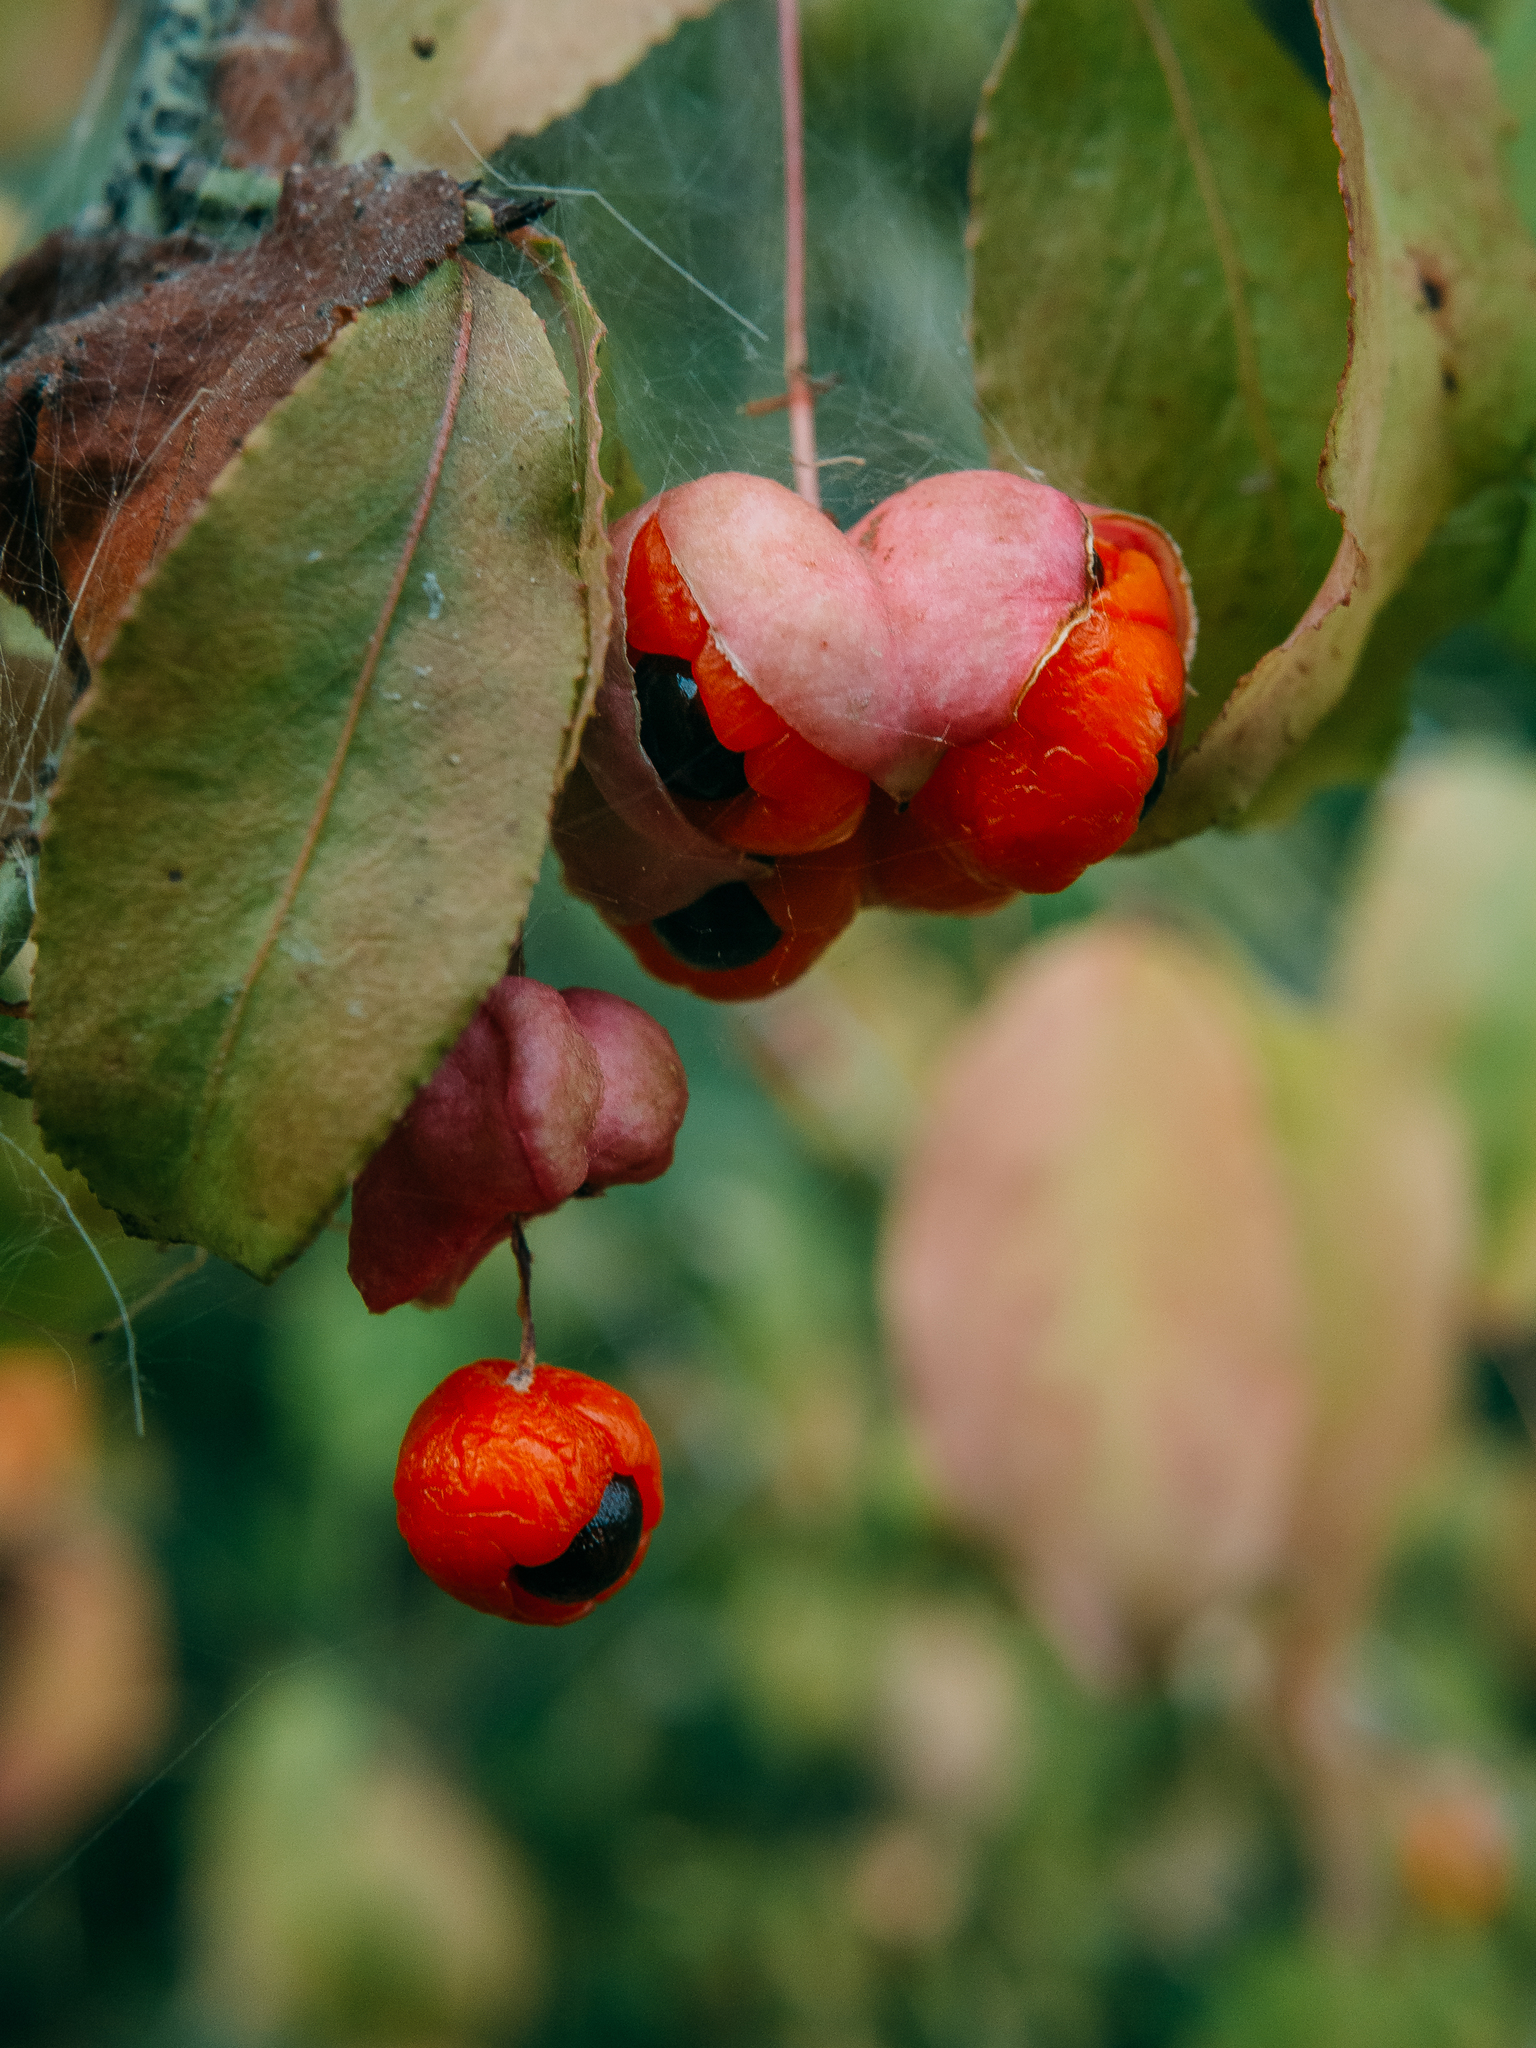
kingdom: Plantae
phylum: Tracheophyta
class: Magnoliopsida
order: Celastrales
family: Celastraceae
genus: Euonymus
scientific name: Euonymus verrucosus
